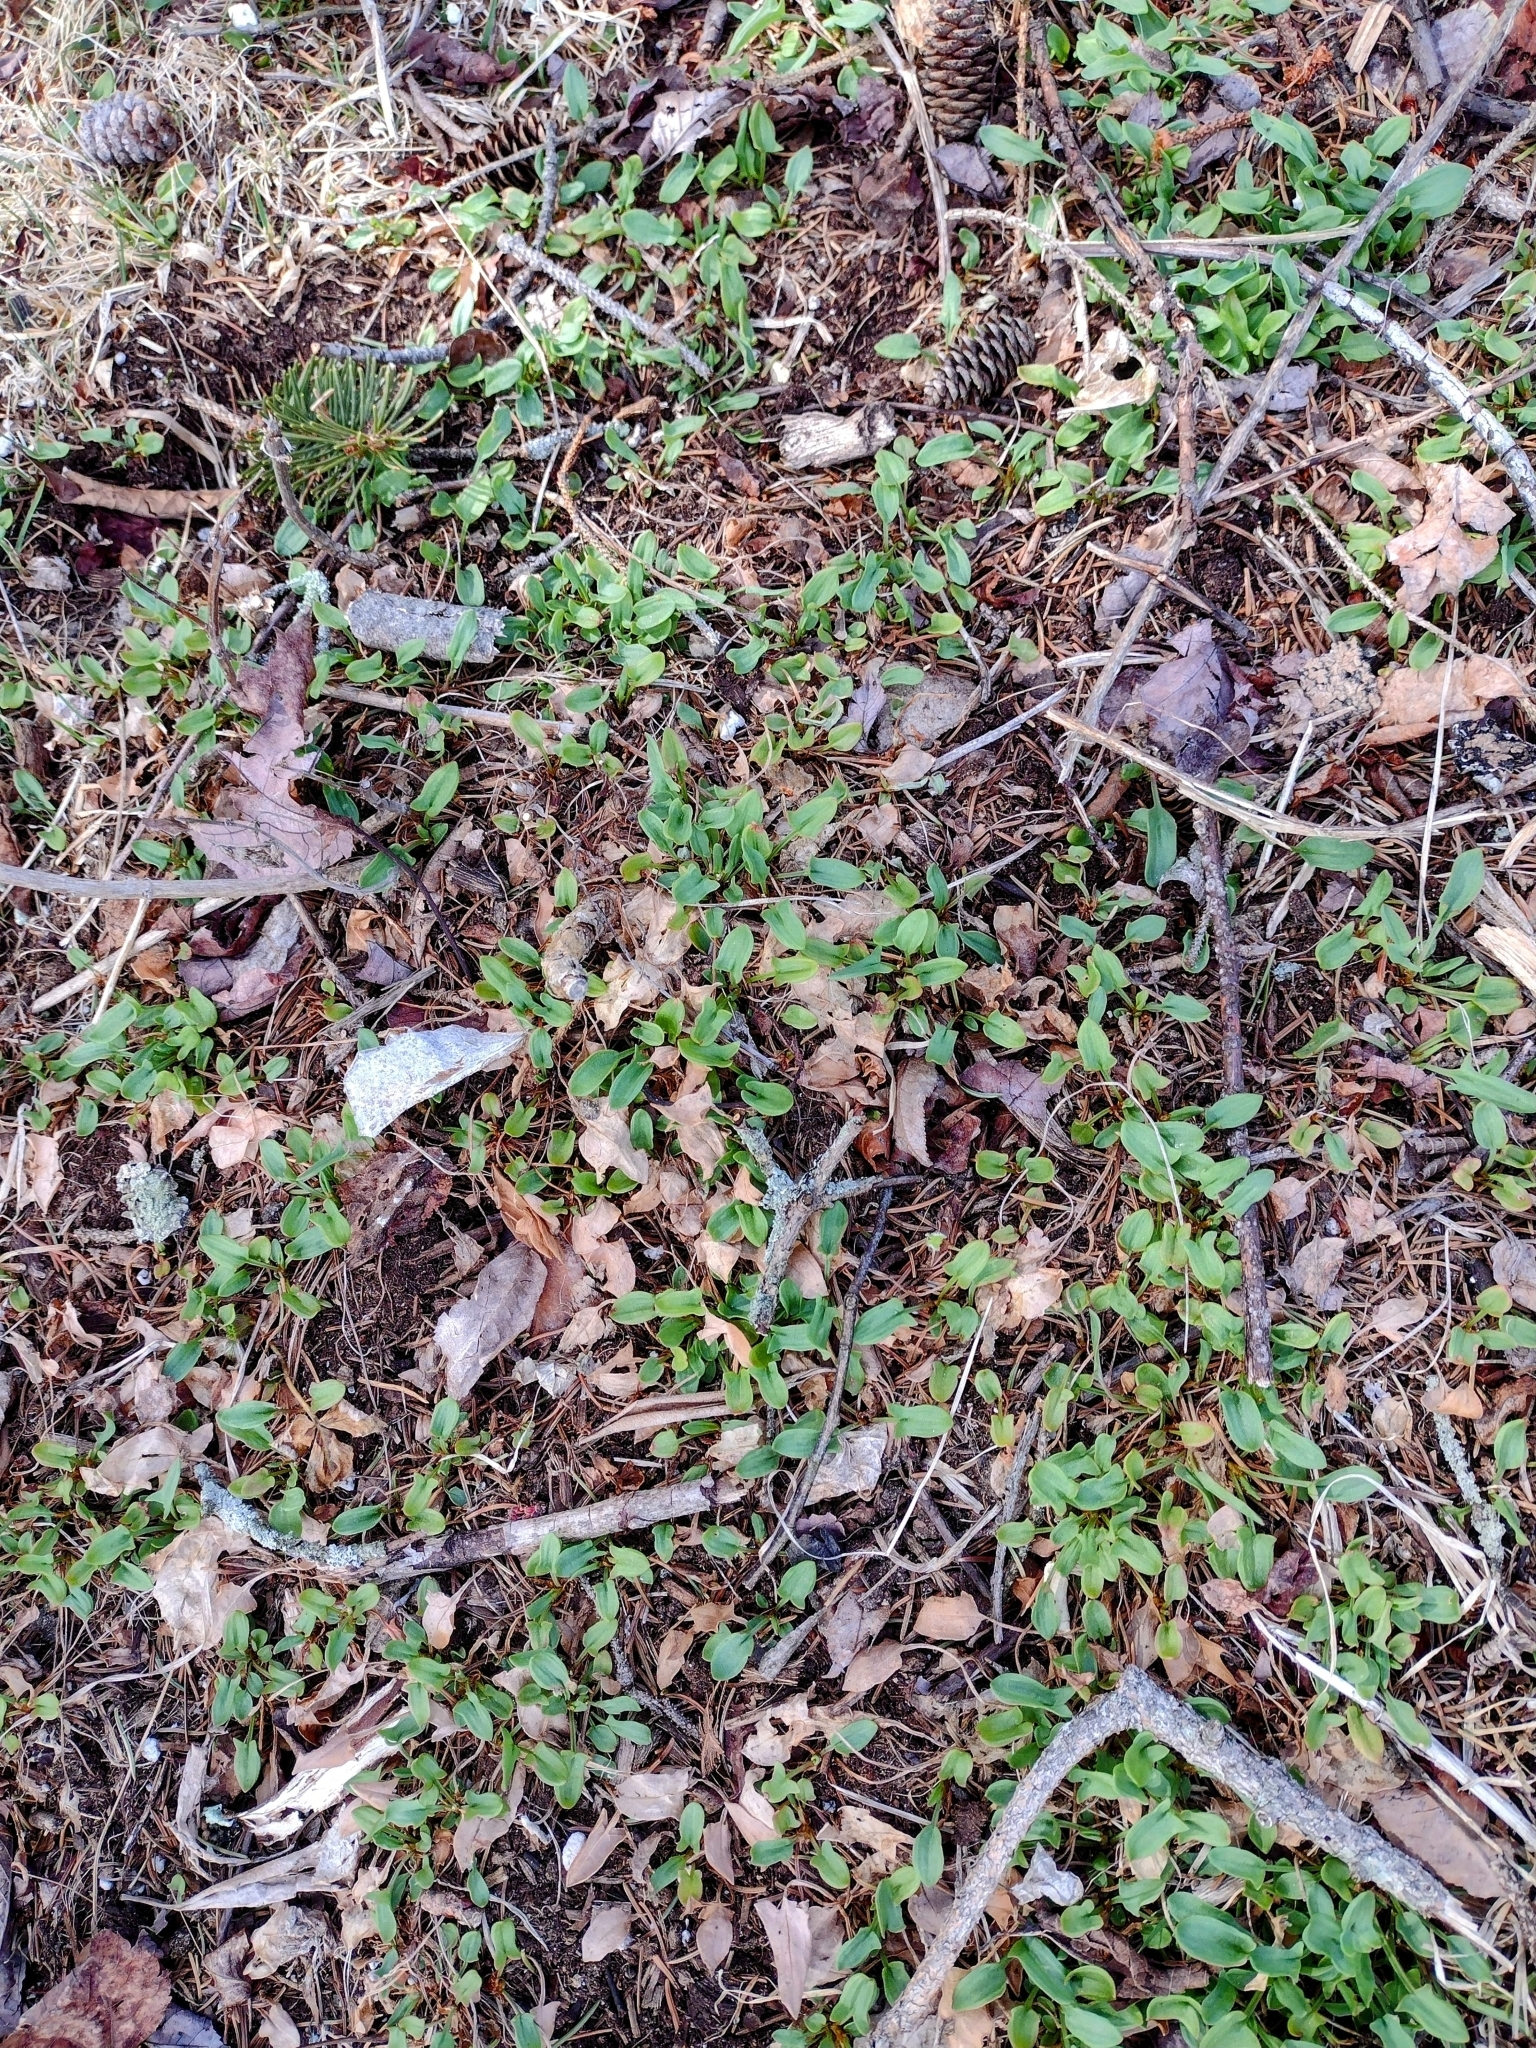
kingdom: Plantae
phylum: Tracheophyta
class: Magnoliopsida
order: Caryophyllales
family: Polygonaceae
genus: Rumex
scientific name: Rumex acetosella
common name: Common sheep sorrel
